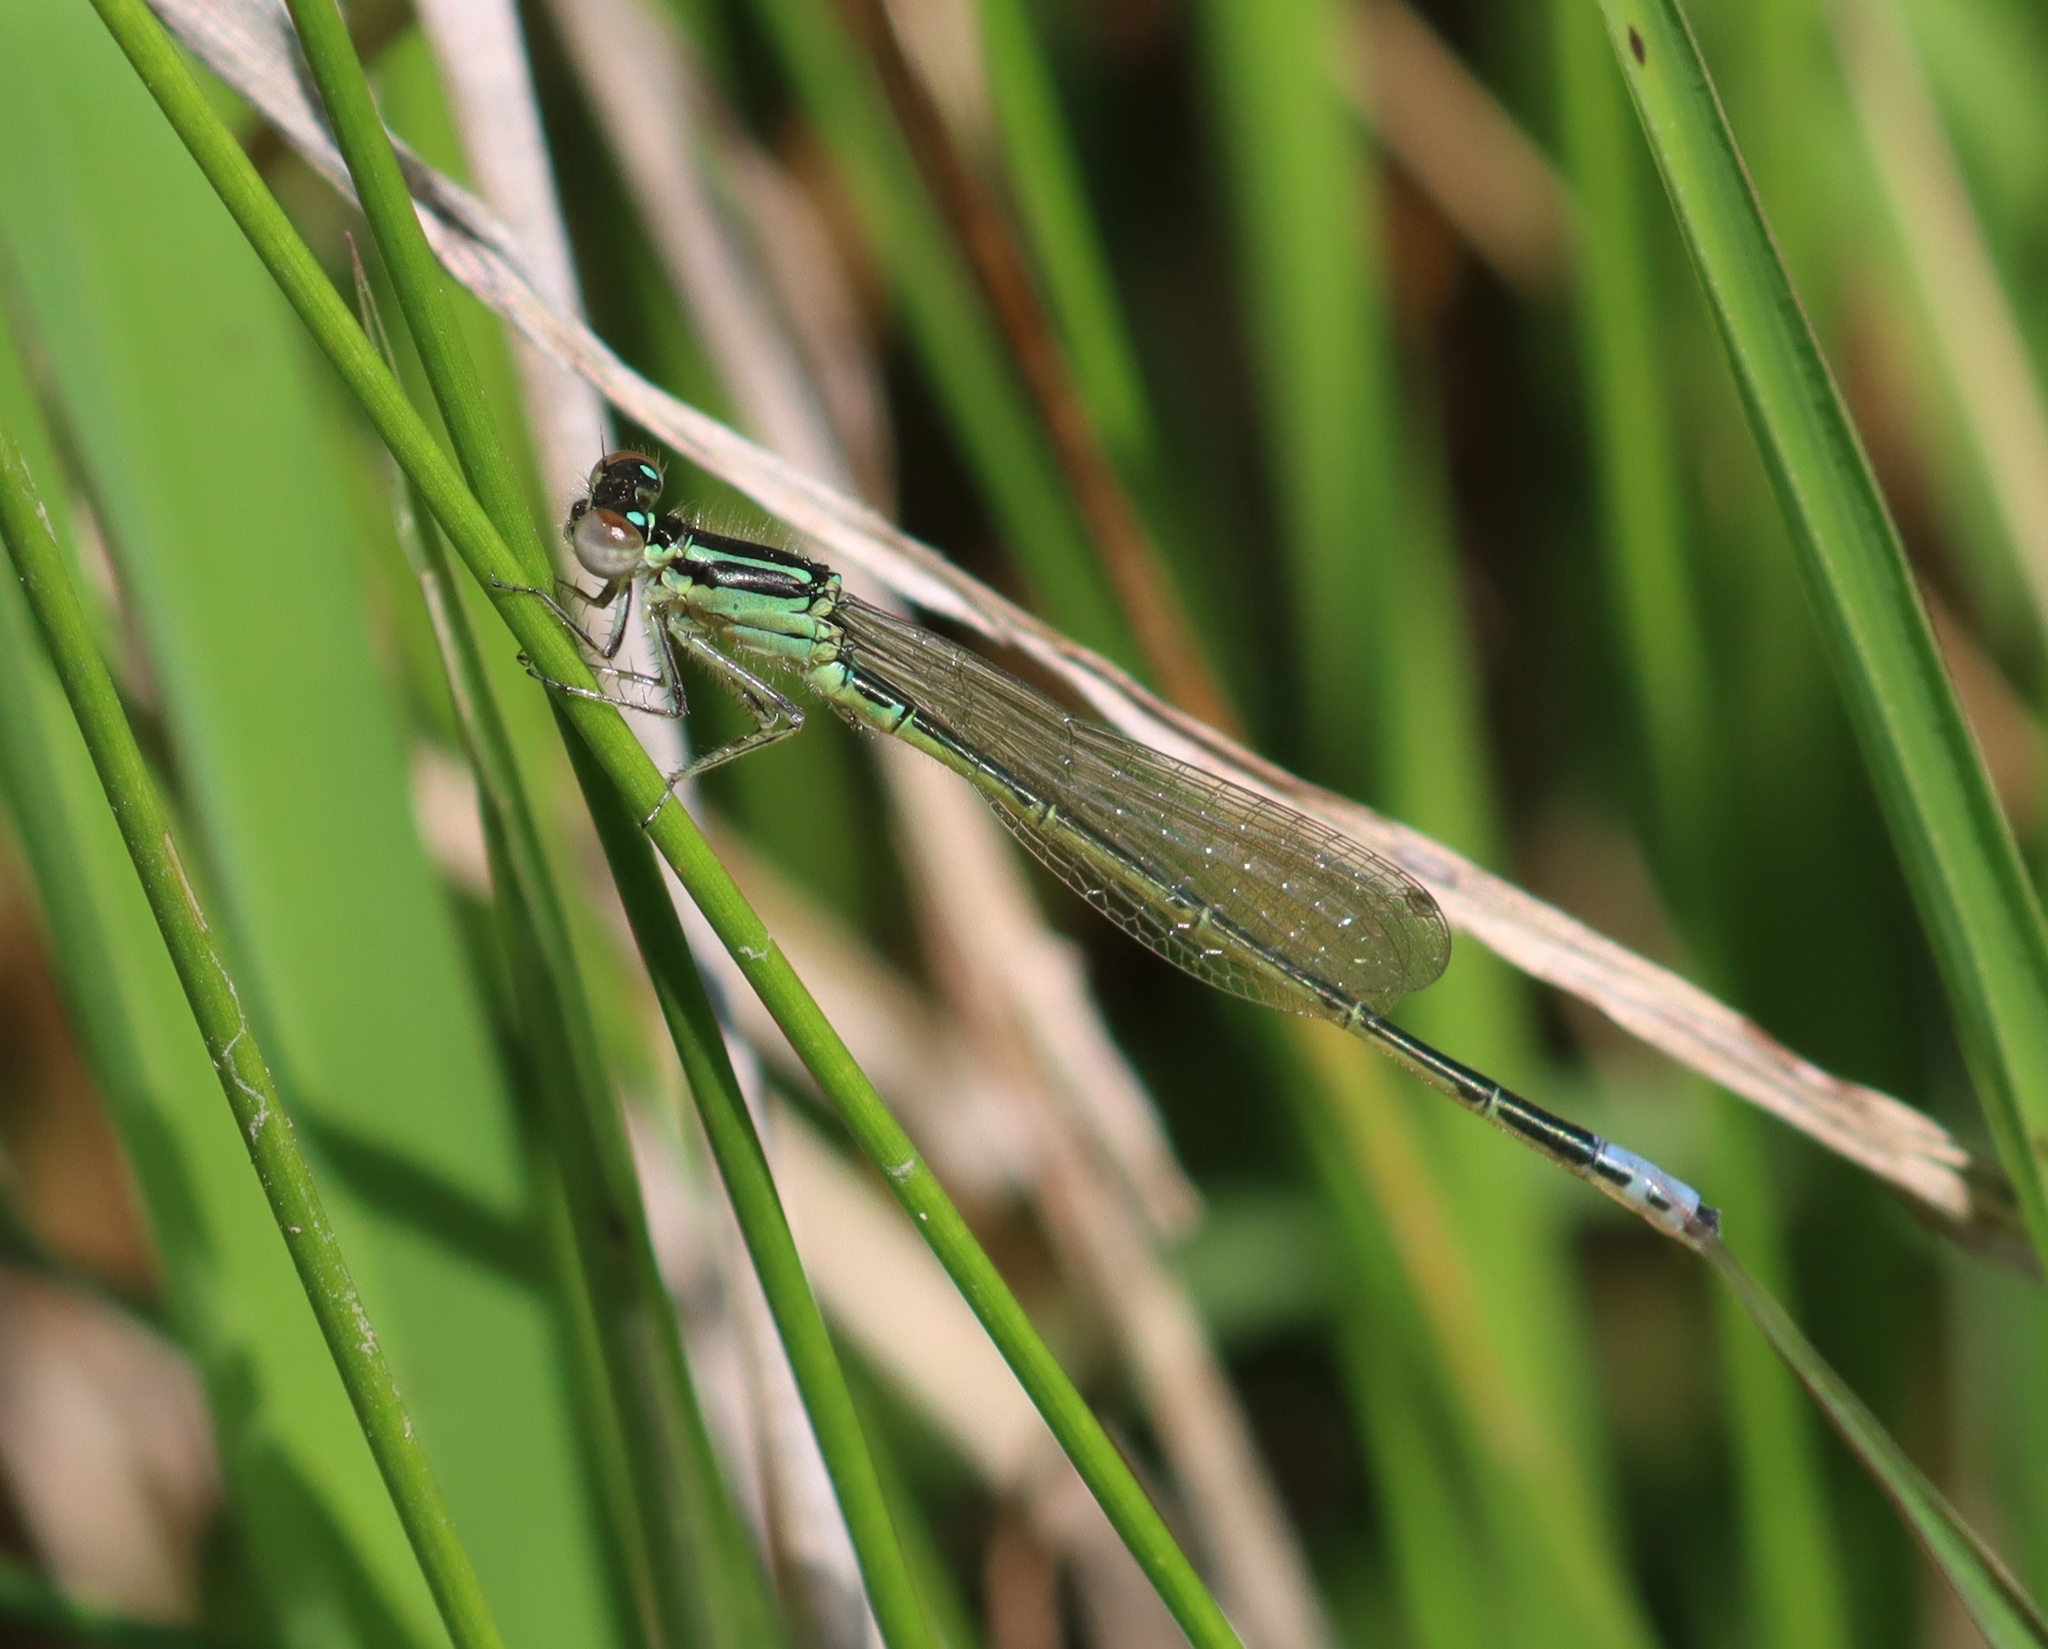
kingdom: Animalia
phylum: Arthropoda
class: Insecta
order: Odonata
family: Coenagrionidae
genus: Ischnura
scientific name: Ischnura verticalis
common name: Eastern forktail
